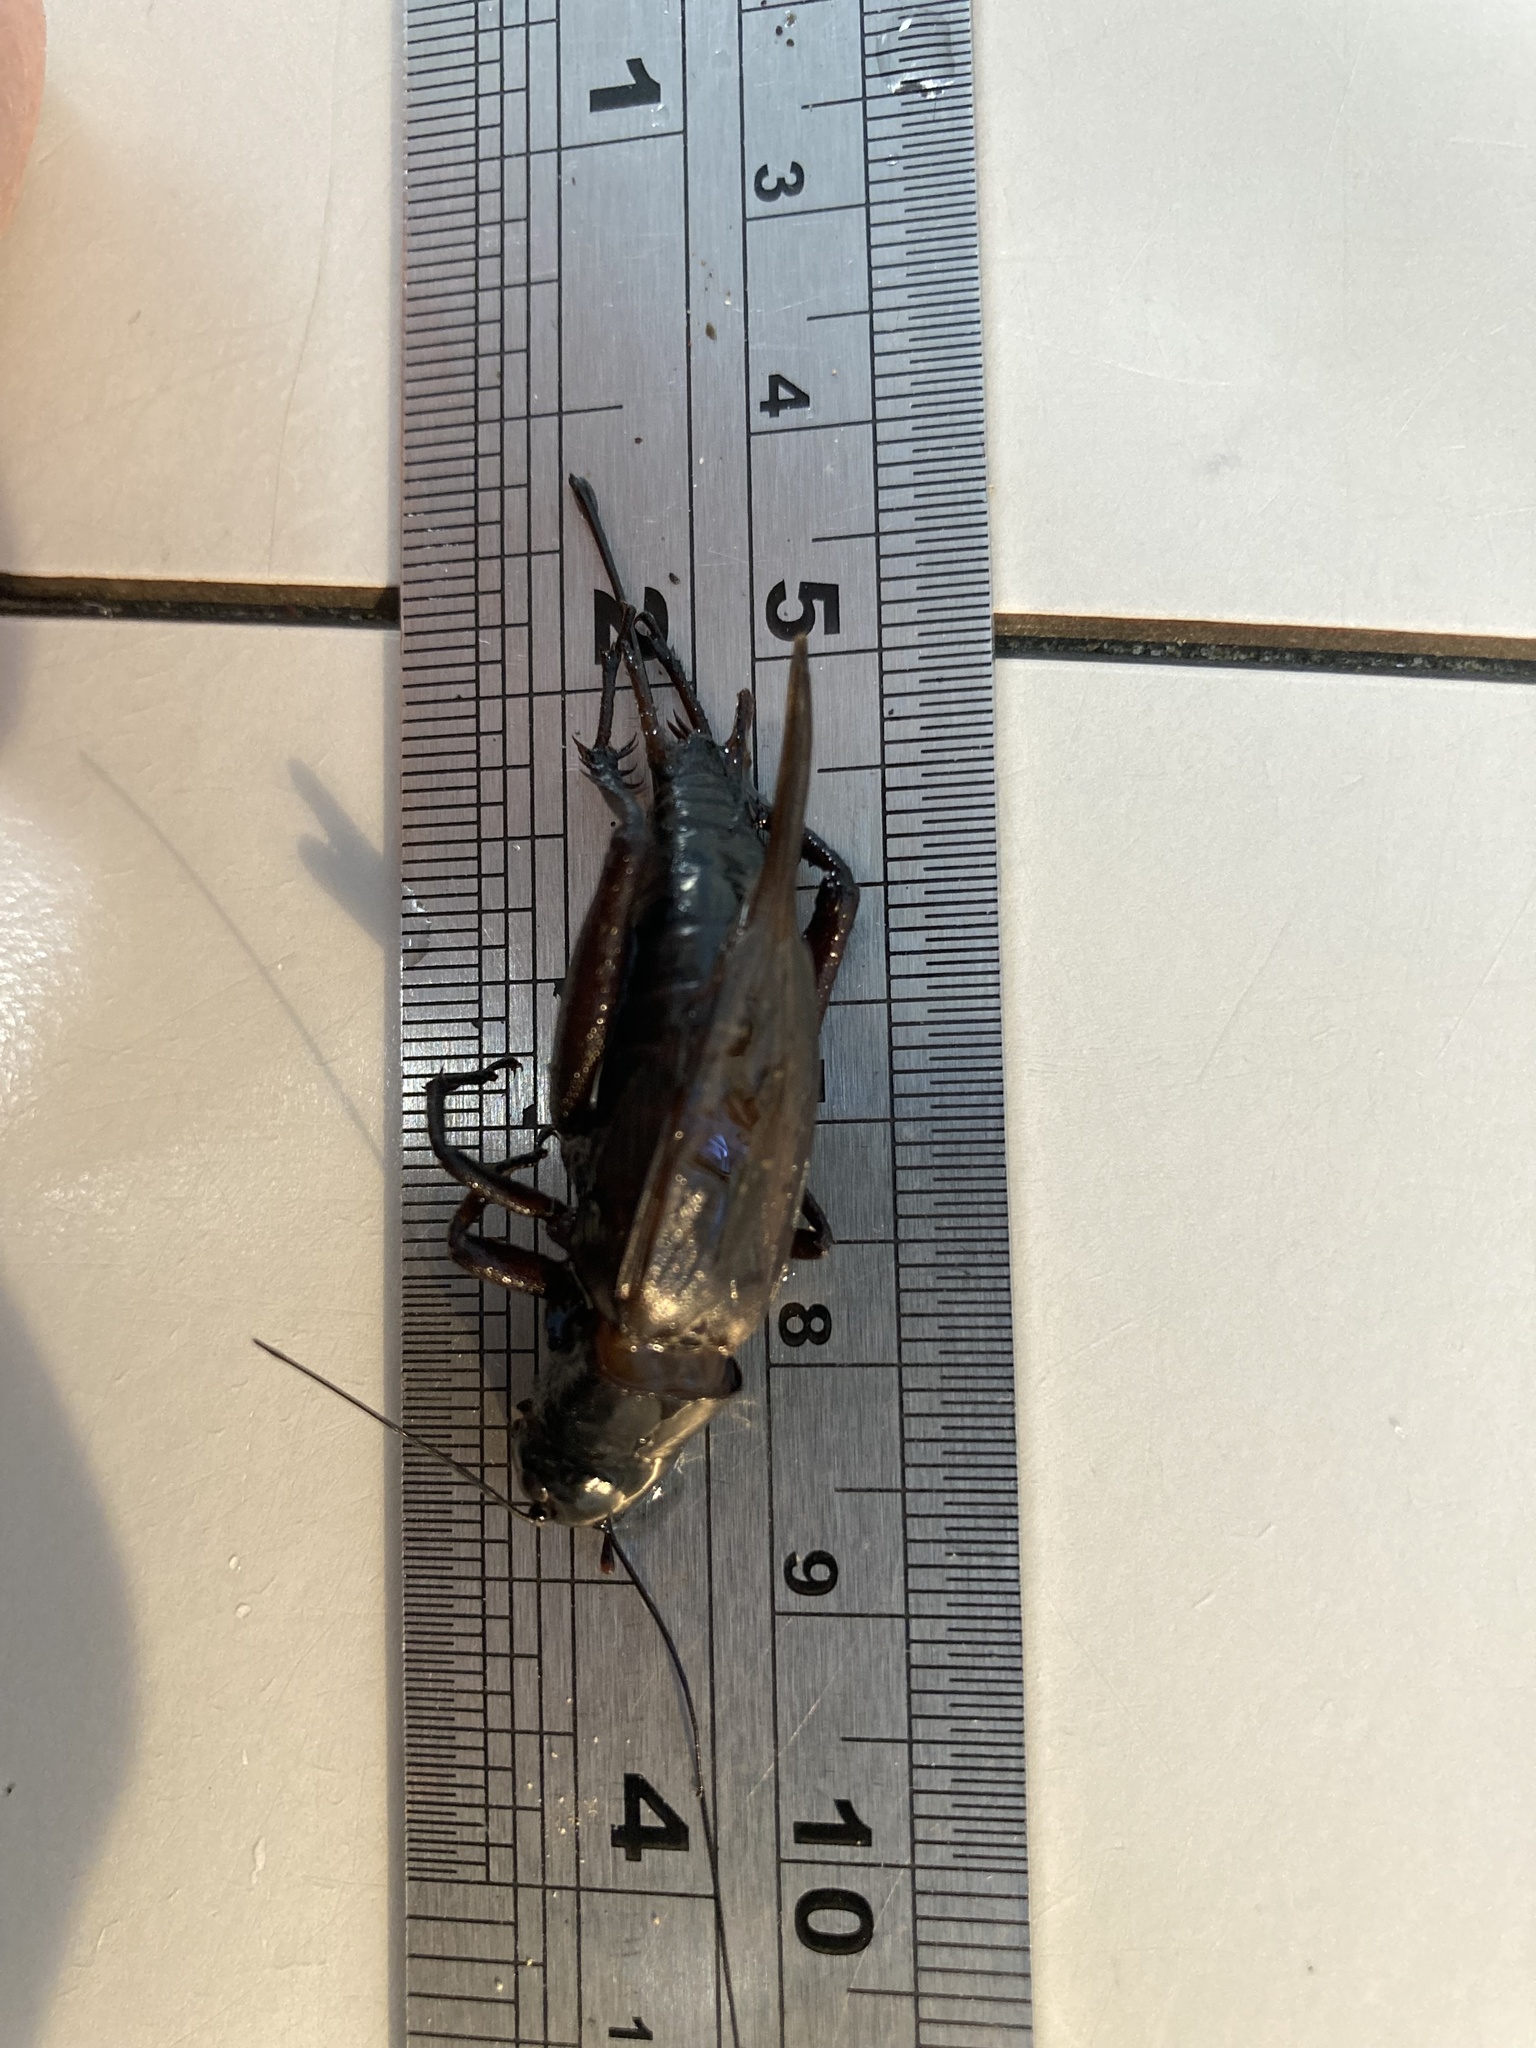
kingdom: Animalia
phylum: Arthropoda
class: Insecta
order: Orthoptera
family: Gryllidae
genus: Teleogryllus
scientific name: Teleogryllus commodus
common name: Black field cricket
